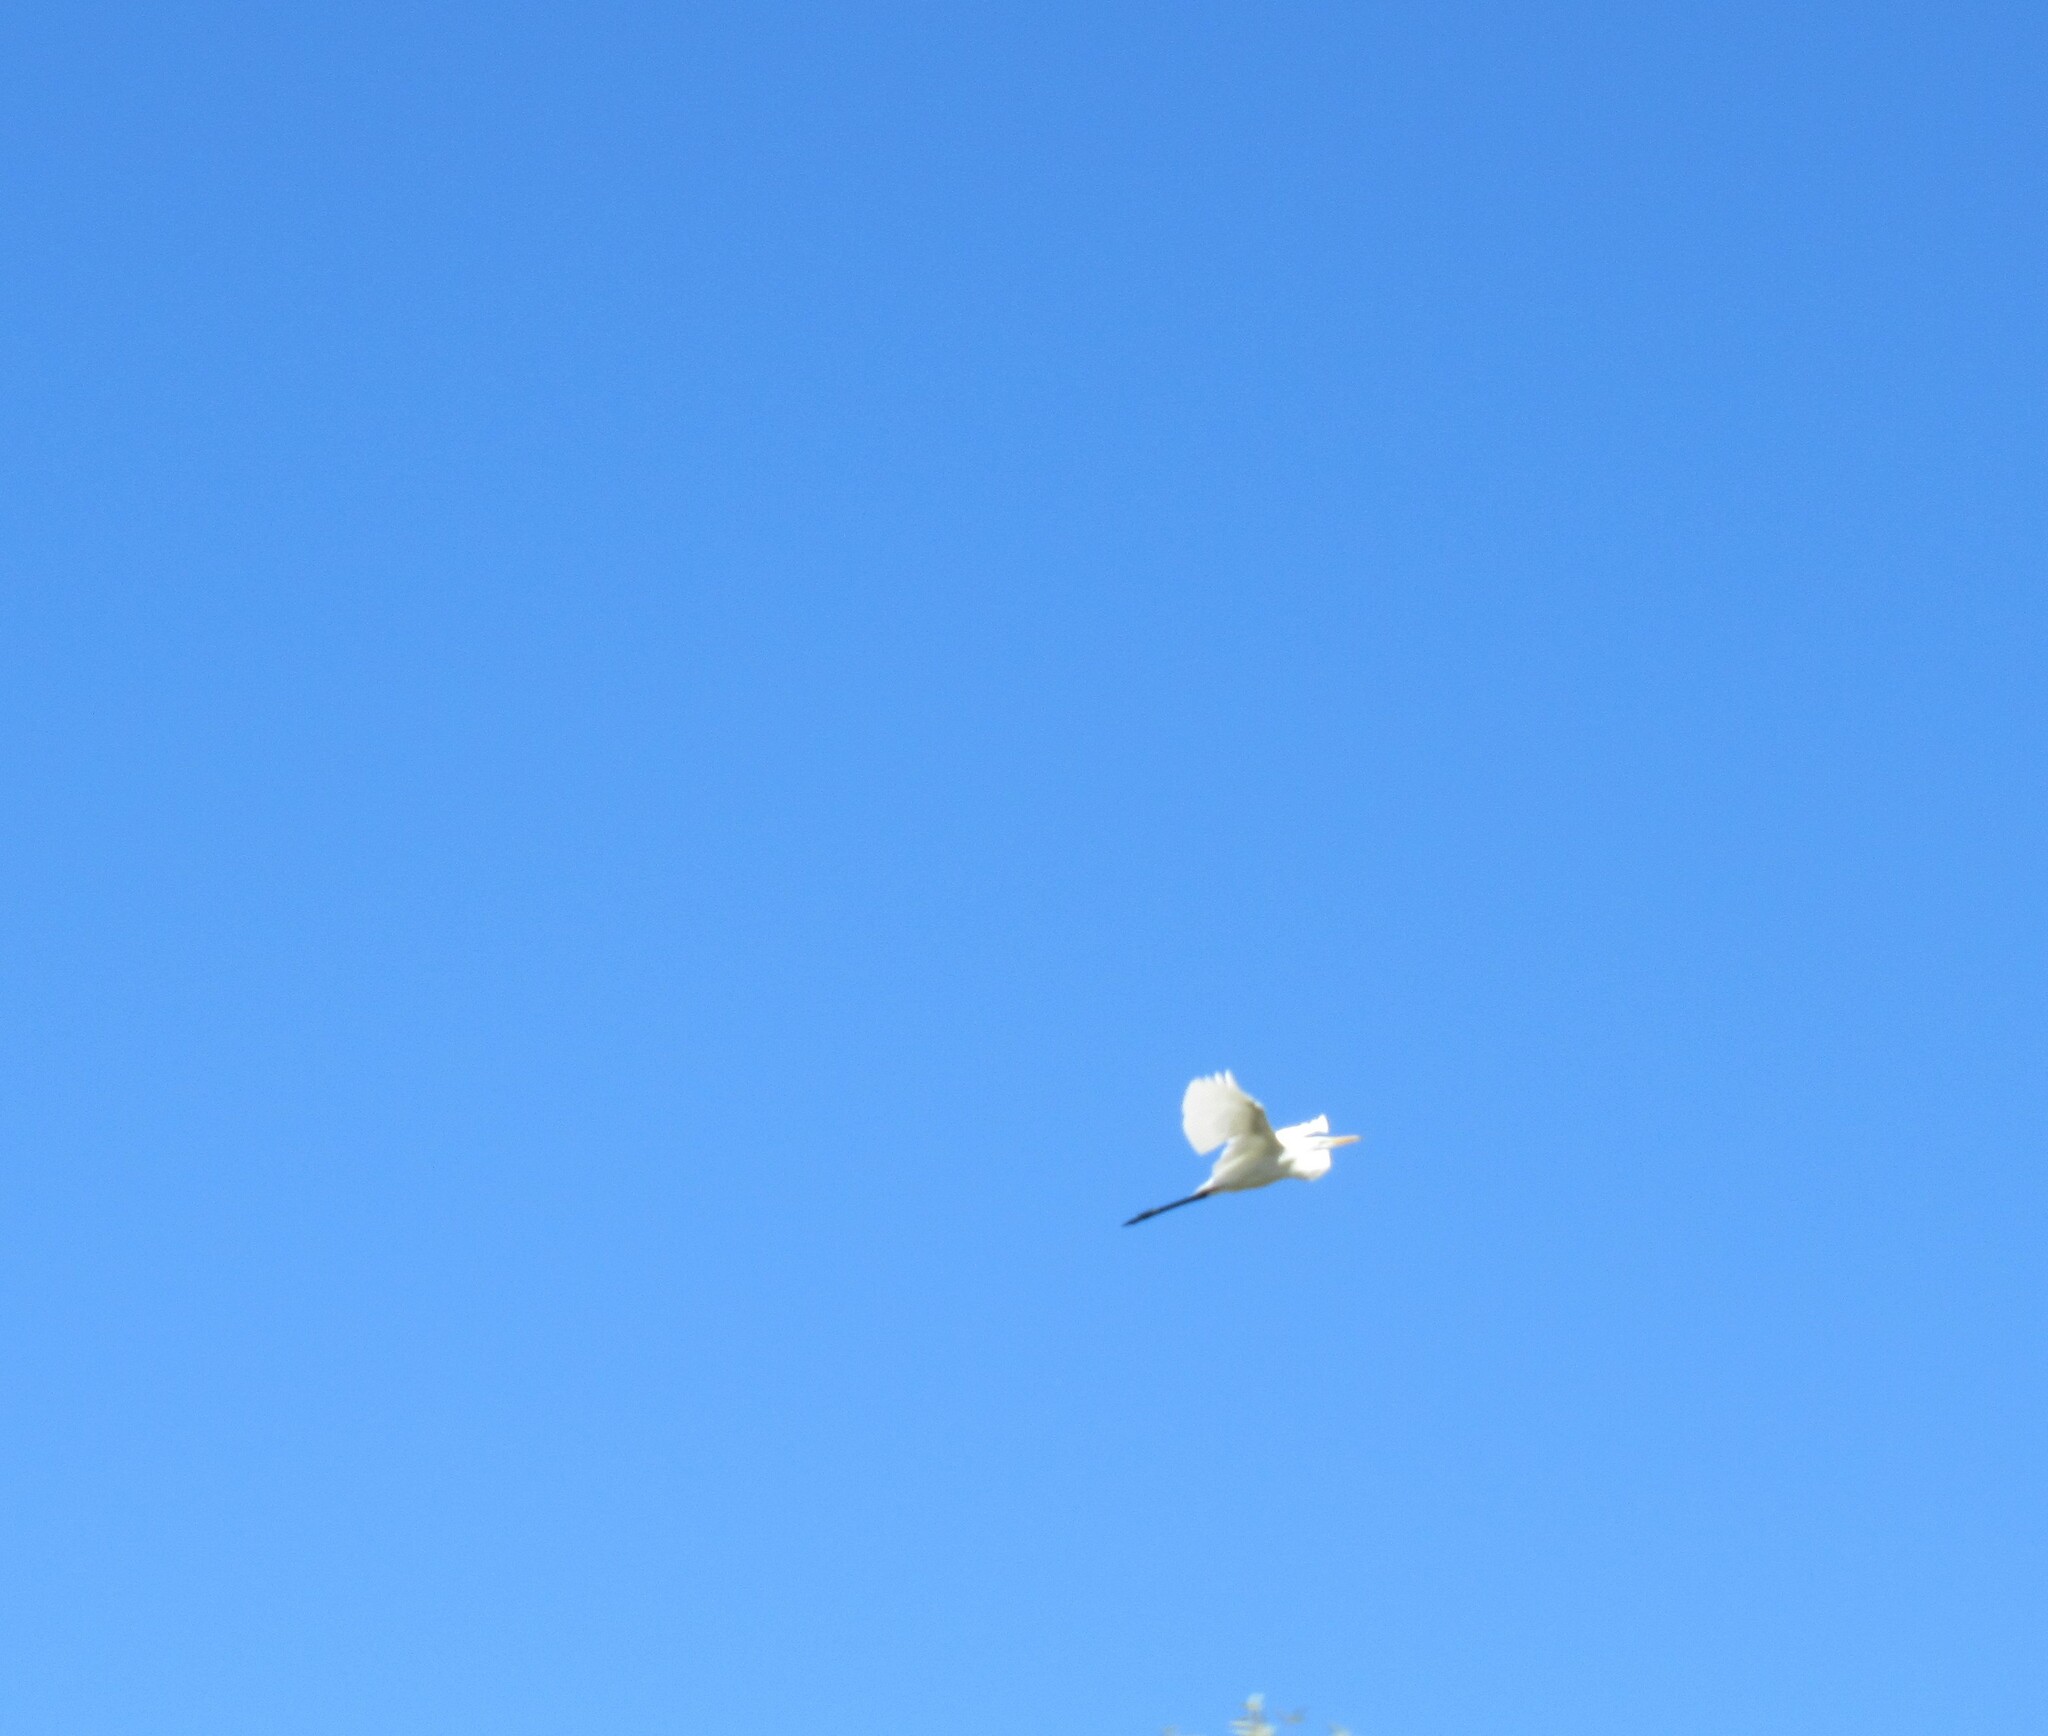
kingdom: Animalia
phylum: Chordata
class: Aves
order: Pelecaniformes
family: Ardeidae
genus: Ardea
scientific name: Ardea alba
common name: Great egret
